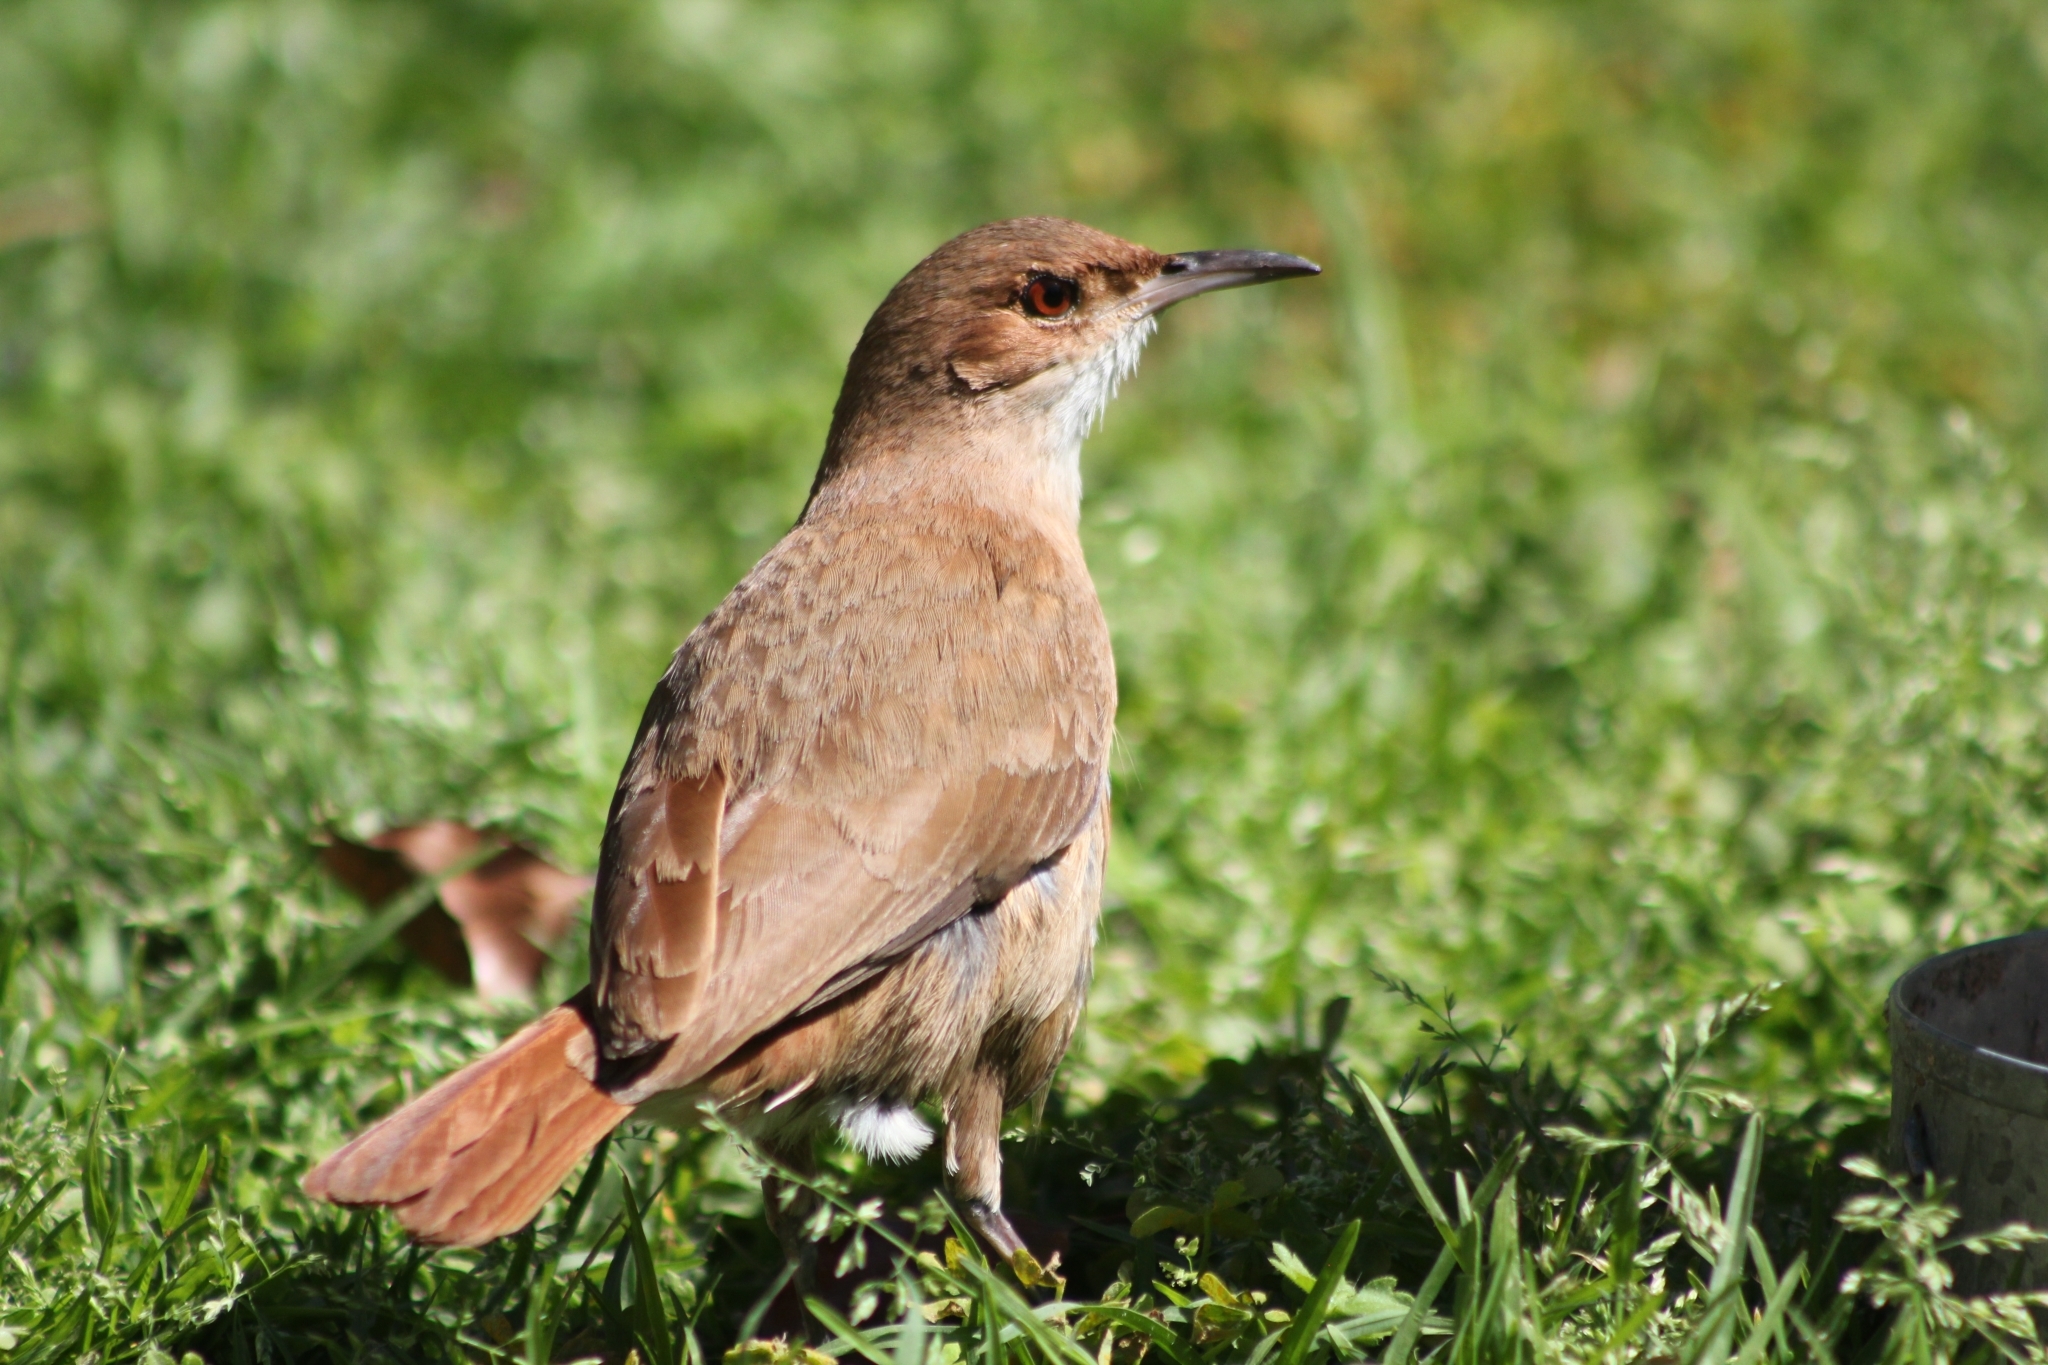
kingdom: Animalia
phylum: Chordata
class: Aves
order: Passeriformes
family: Furnariidae
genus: Furnarius
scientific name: Furnarius rufus
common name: Rufous hornero
